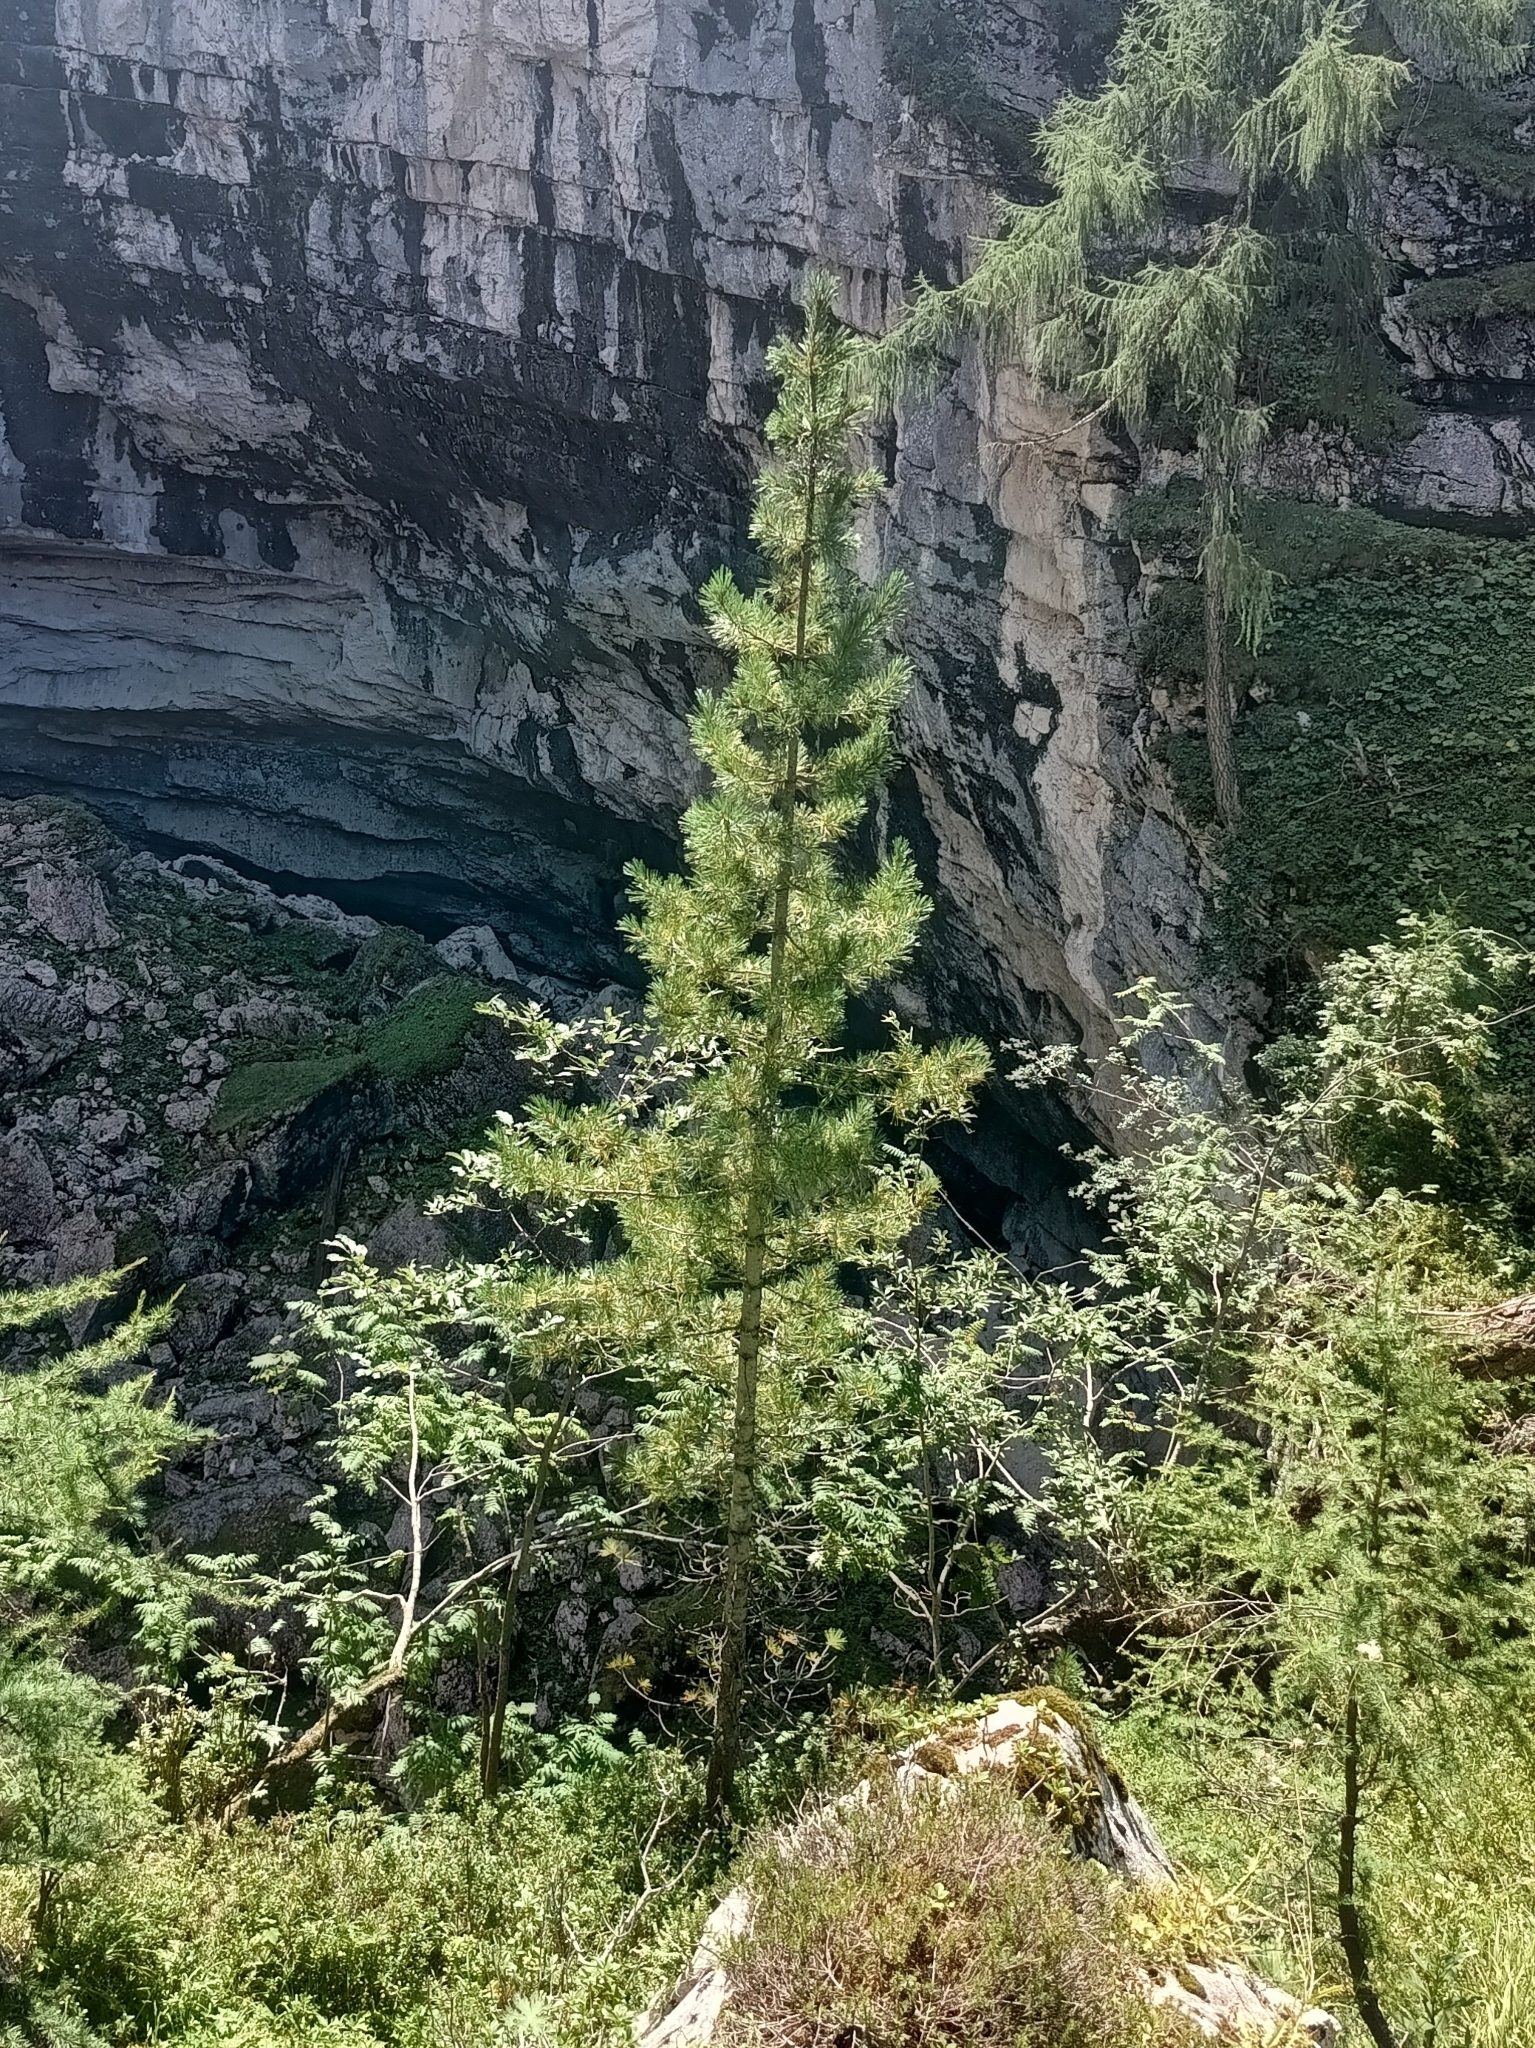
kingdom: Plantae
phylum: Tracheophyta
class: Pinopsida
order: Pinales
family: Pinaceae
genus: Pinus
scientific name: Pinus cembra
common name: Arolla pine
